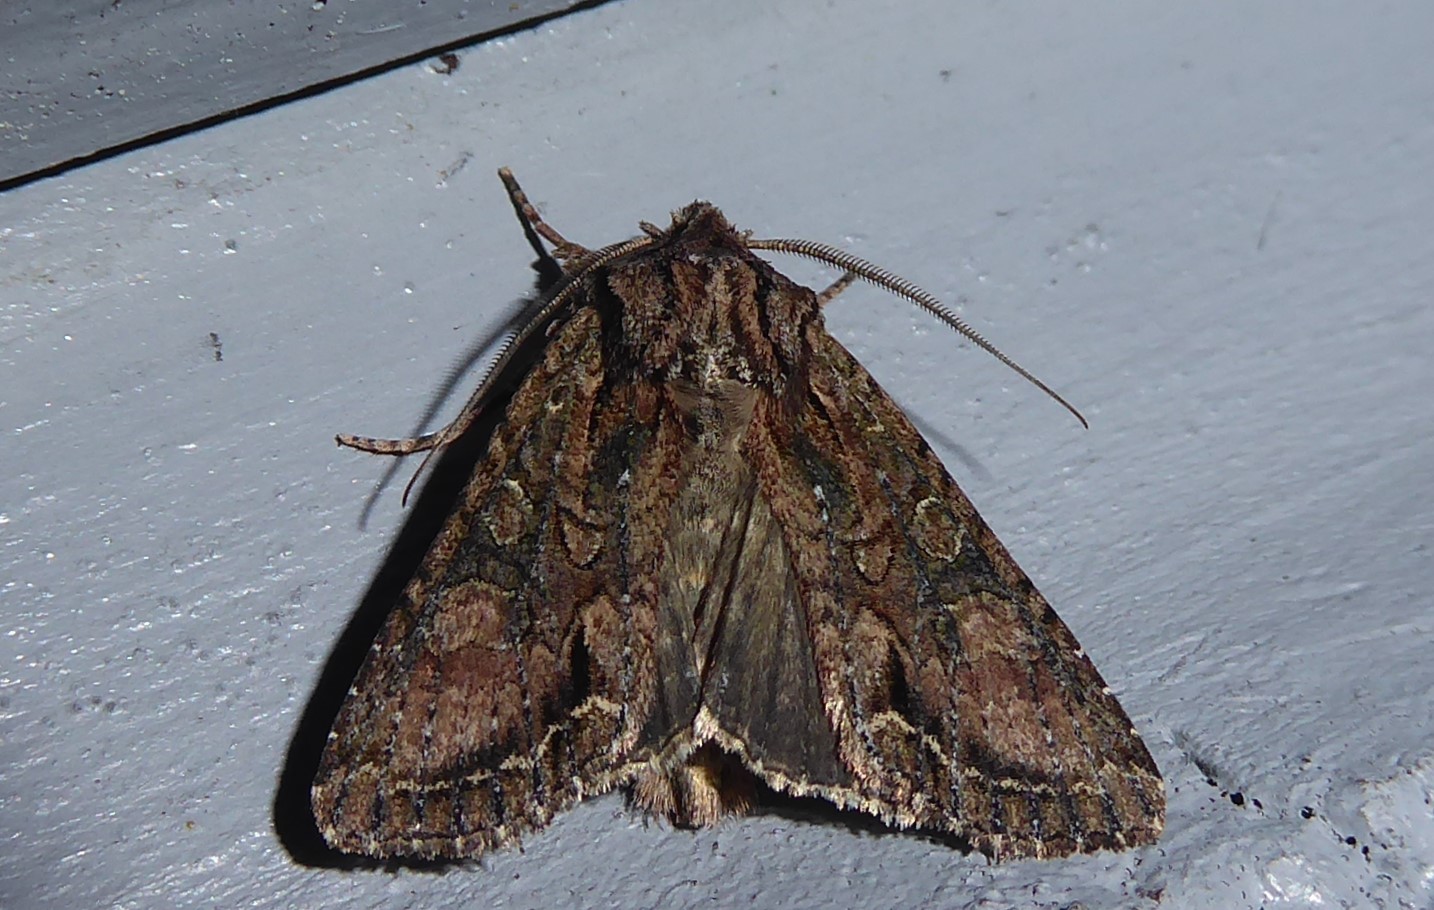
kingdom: Animalia
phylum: Arthropoda
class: Insecta
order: Lepidoptera
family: Noctuidae
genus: Ichneutica
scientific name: Ichneutica mutans
